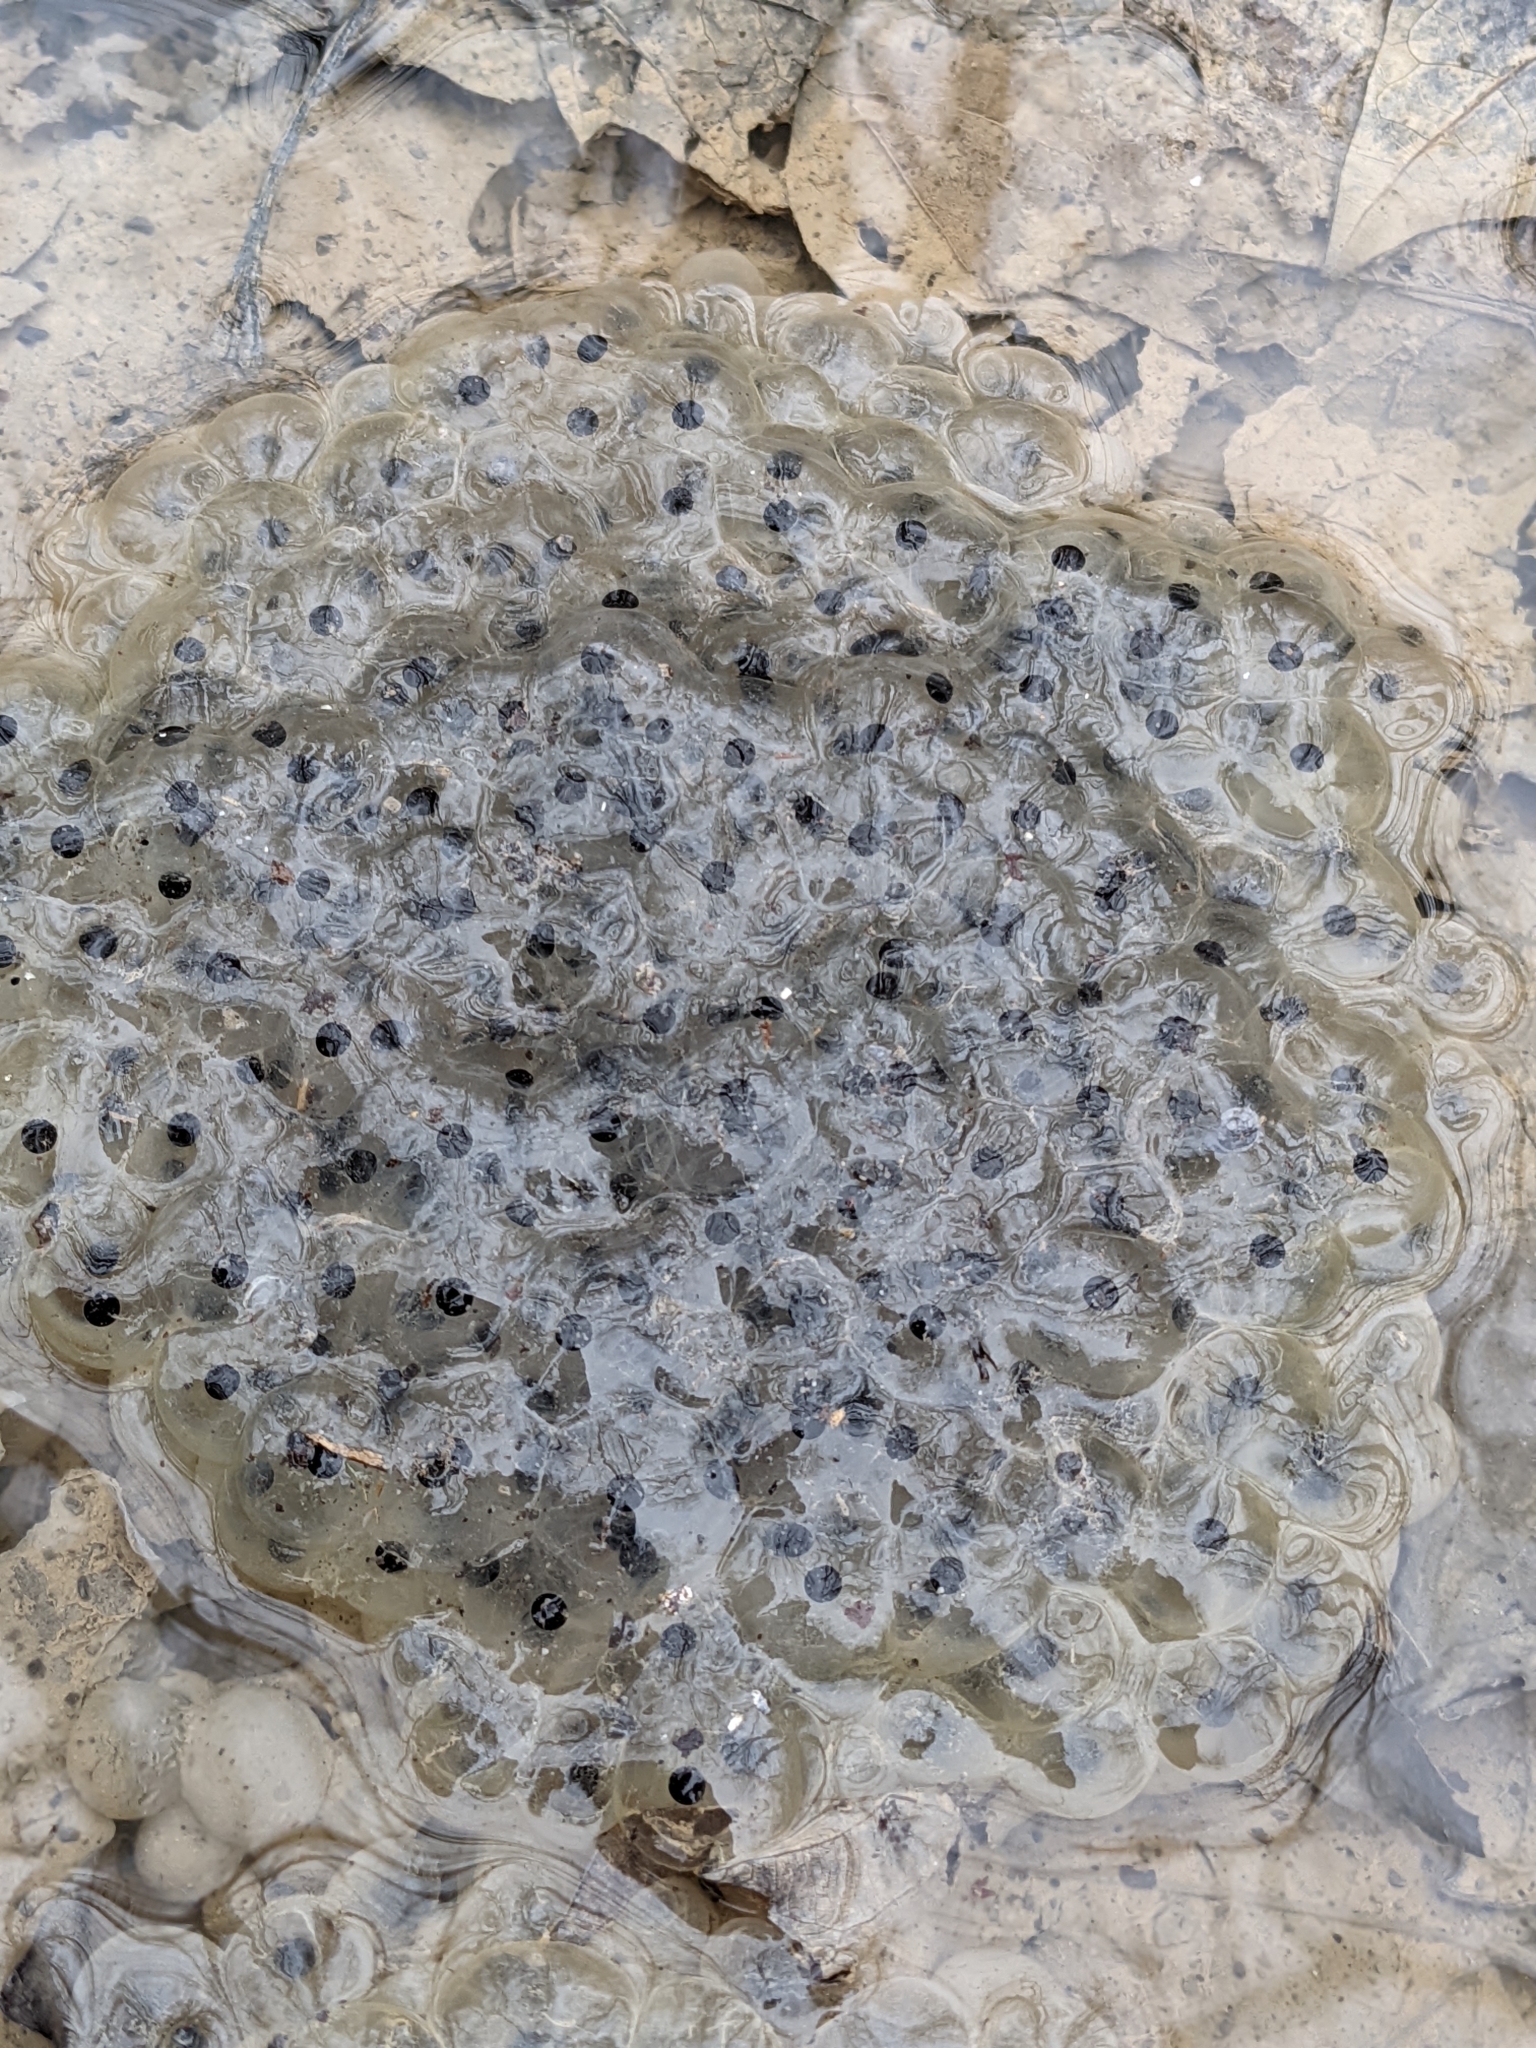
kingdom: Animalia
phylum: Chordata
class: Amphibia
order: Anura
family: Ranidae
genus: Lithobates
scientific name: Lithobates sylvaticus
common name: Wood frog
